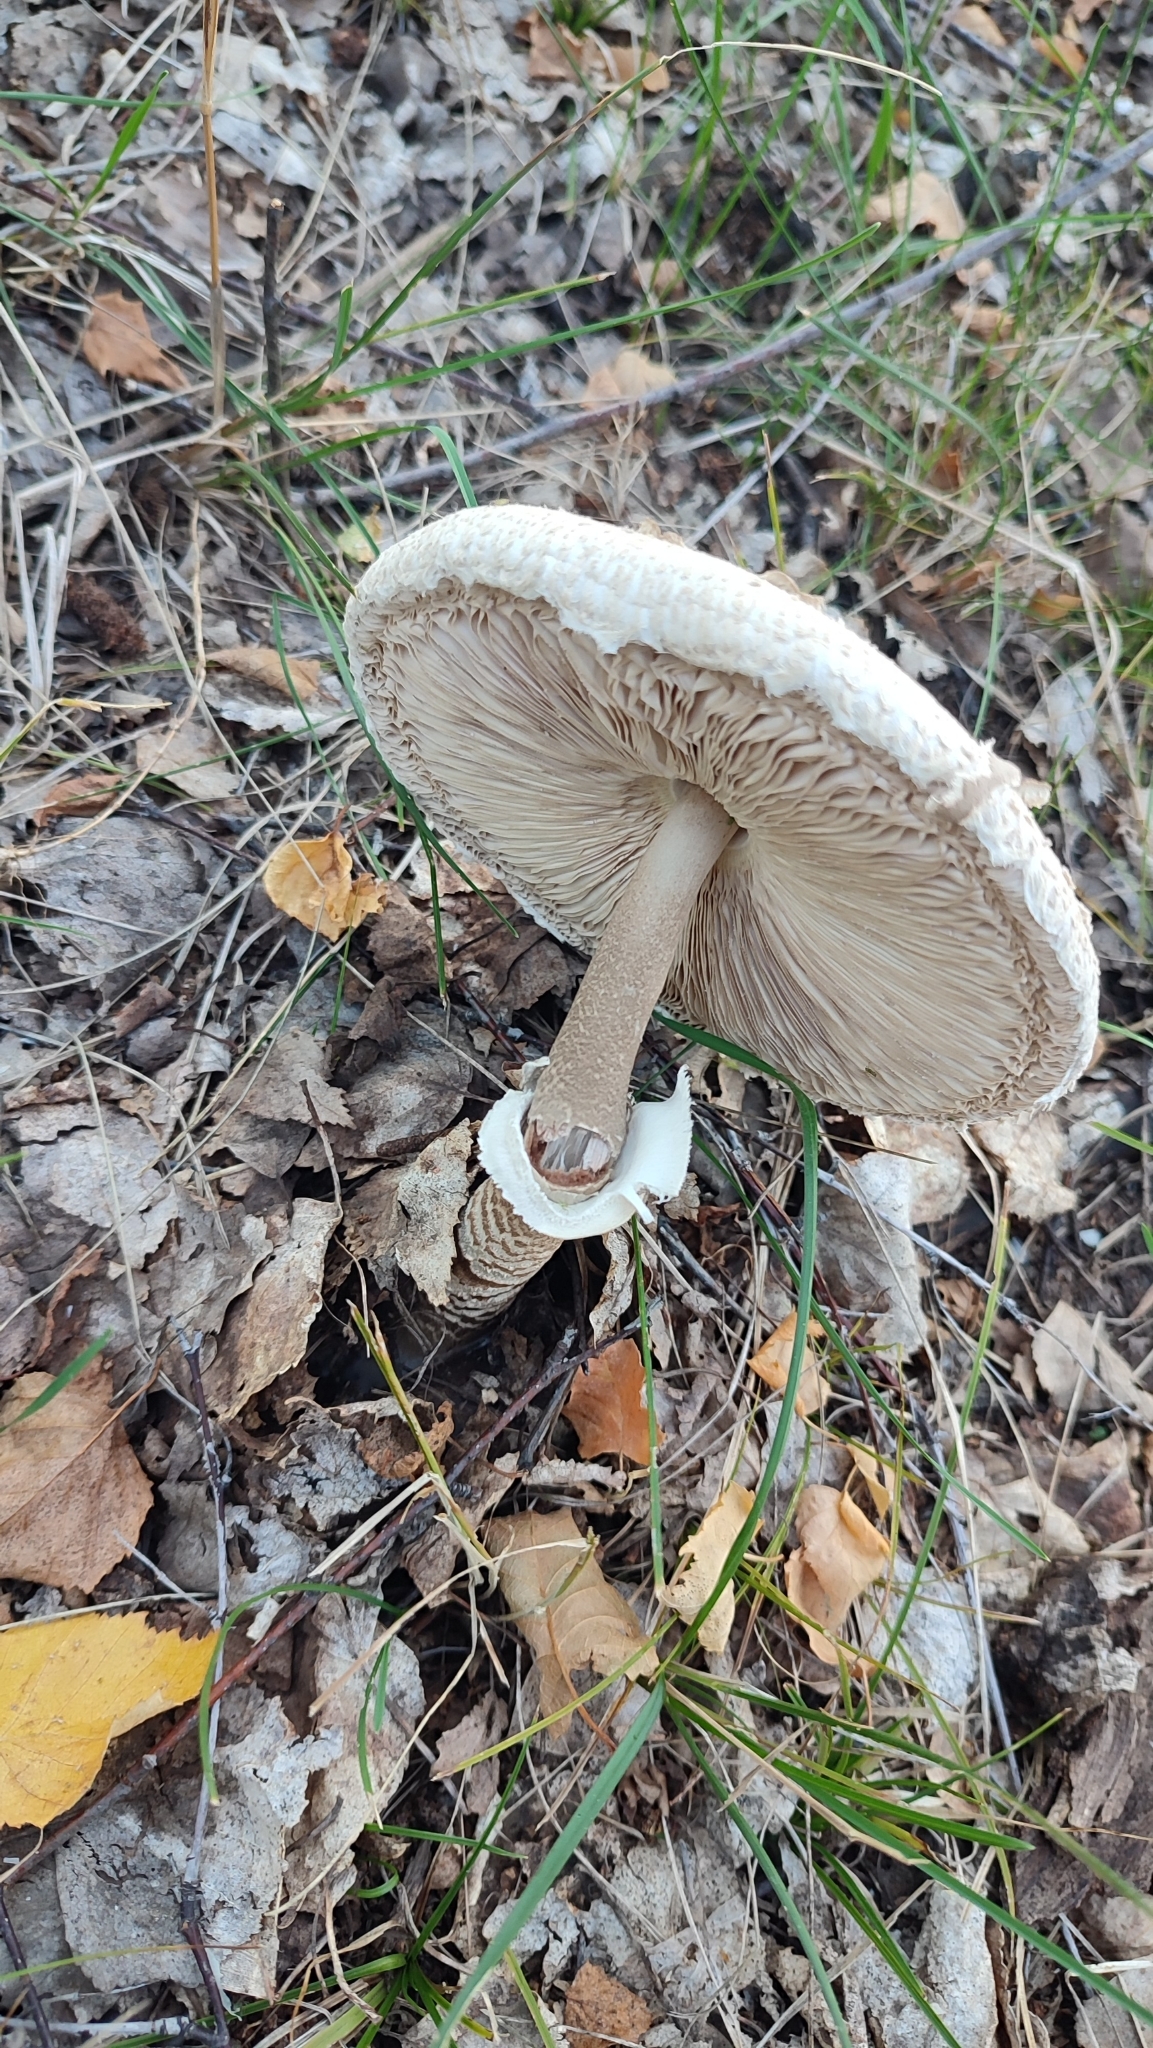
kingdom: Fungi
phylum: Basidiomycota
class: Agaricomycetes
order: Agaricales
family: Agaricaceae
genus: Macrolepiota
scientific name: Macrolepiota procera
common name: Parasol
